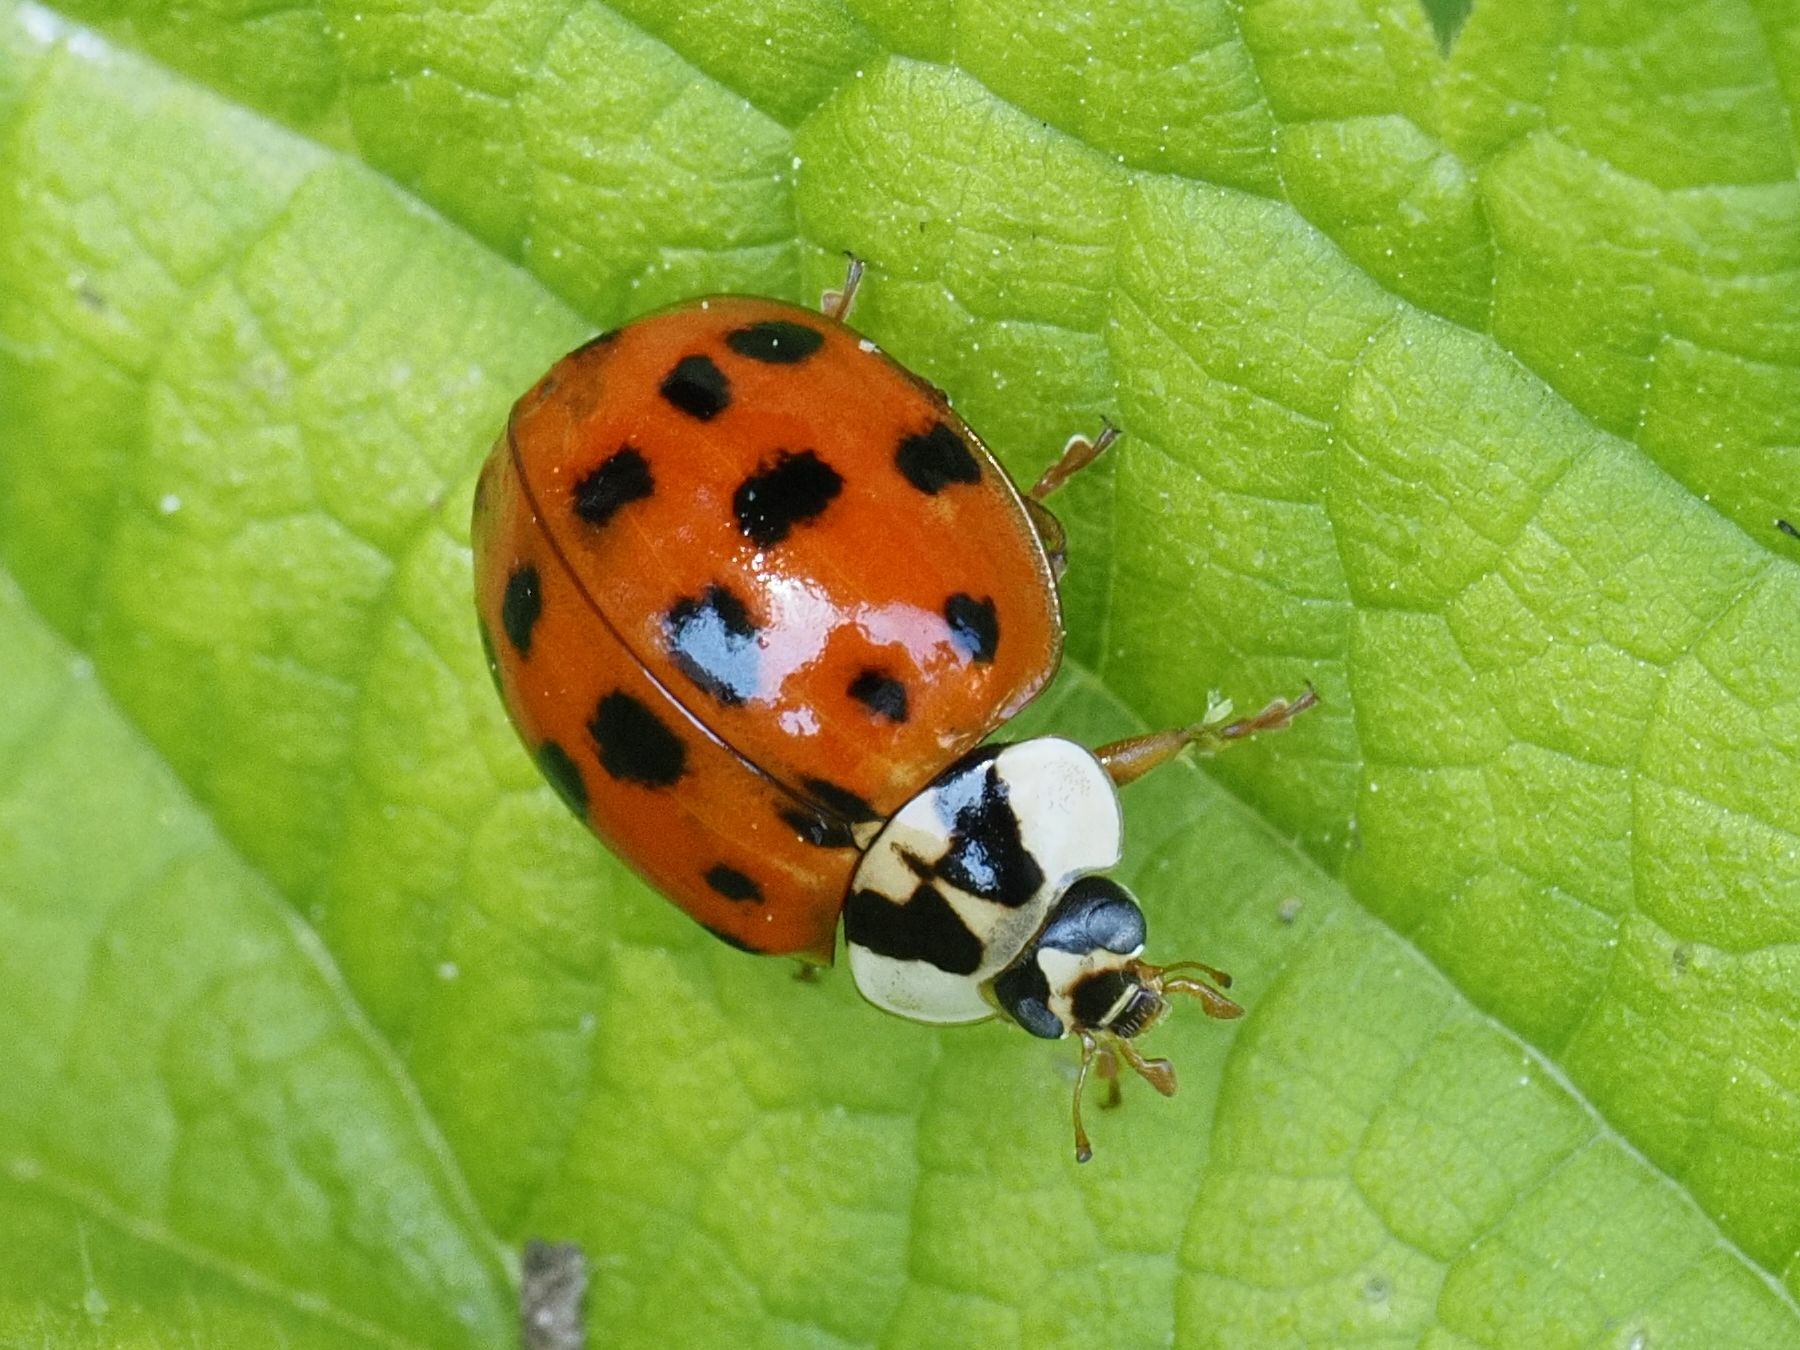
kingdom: Animalia
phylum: Arthropoda
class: Insecta
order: Coleoptera
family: Coccinellidae
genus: Harmonia
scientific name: Harmonia axyridis
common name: Harlequin ladybird
